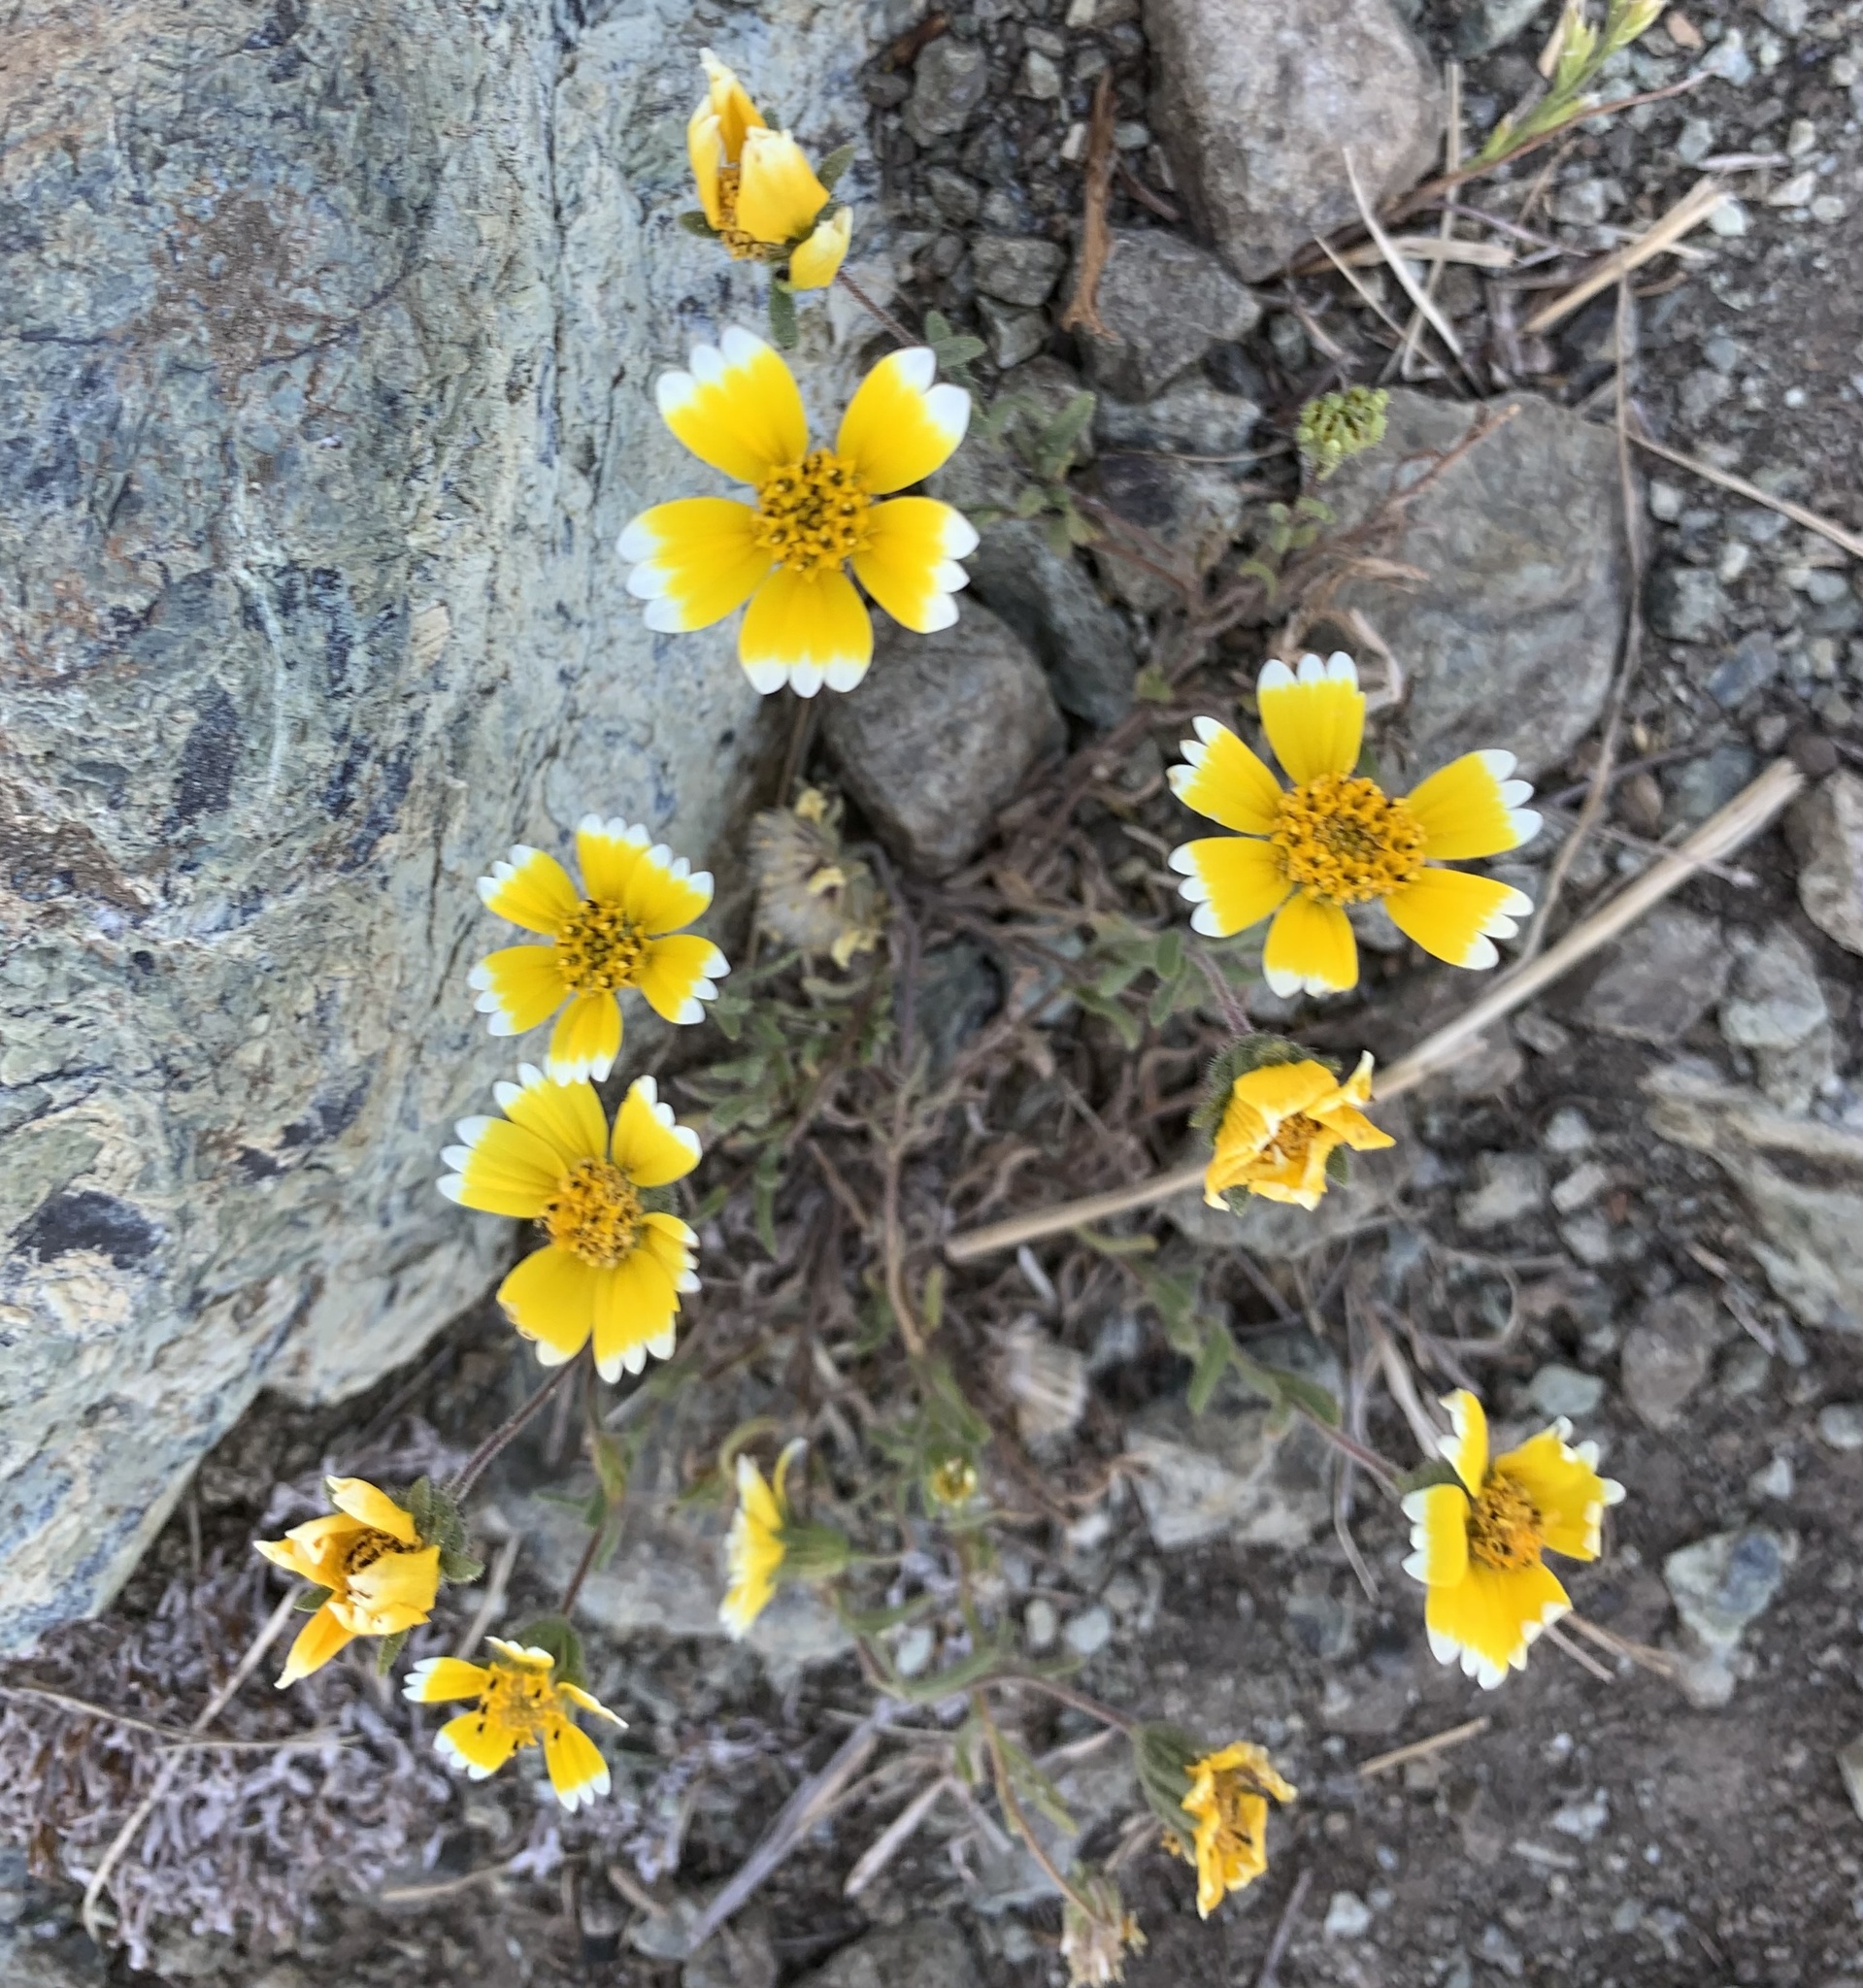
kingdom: Plantae
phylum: Tracheophyta
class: Magnoliopsida
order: Asterales
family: Asteraceae
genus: Layia
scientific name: Layia platyglossa
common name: Tidy-tips
